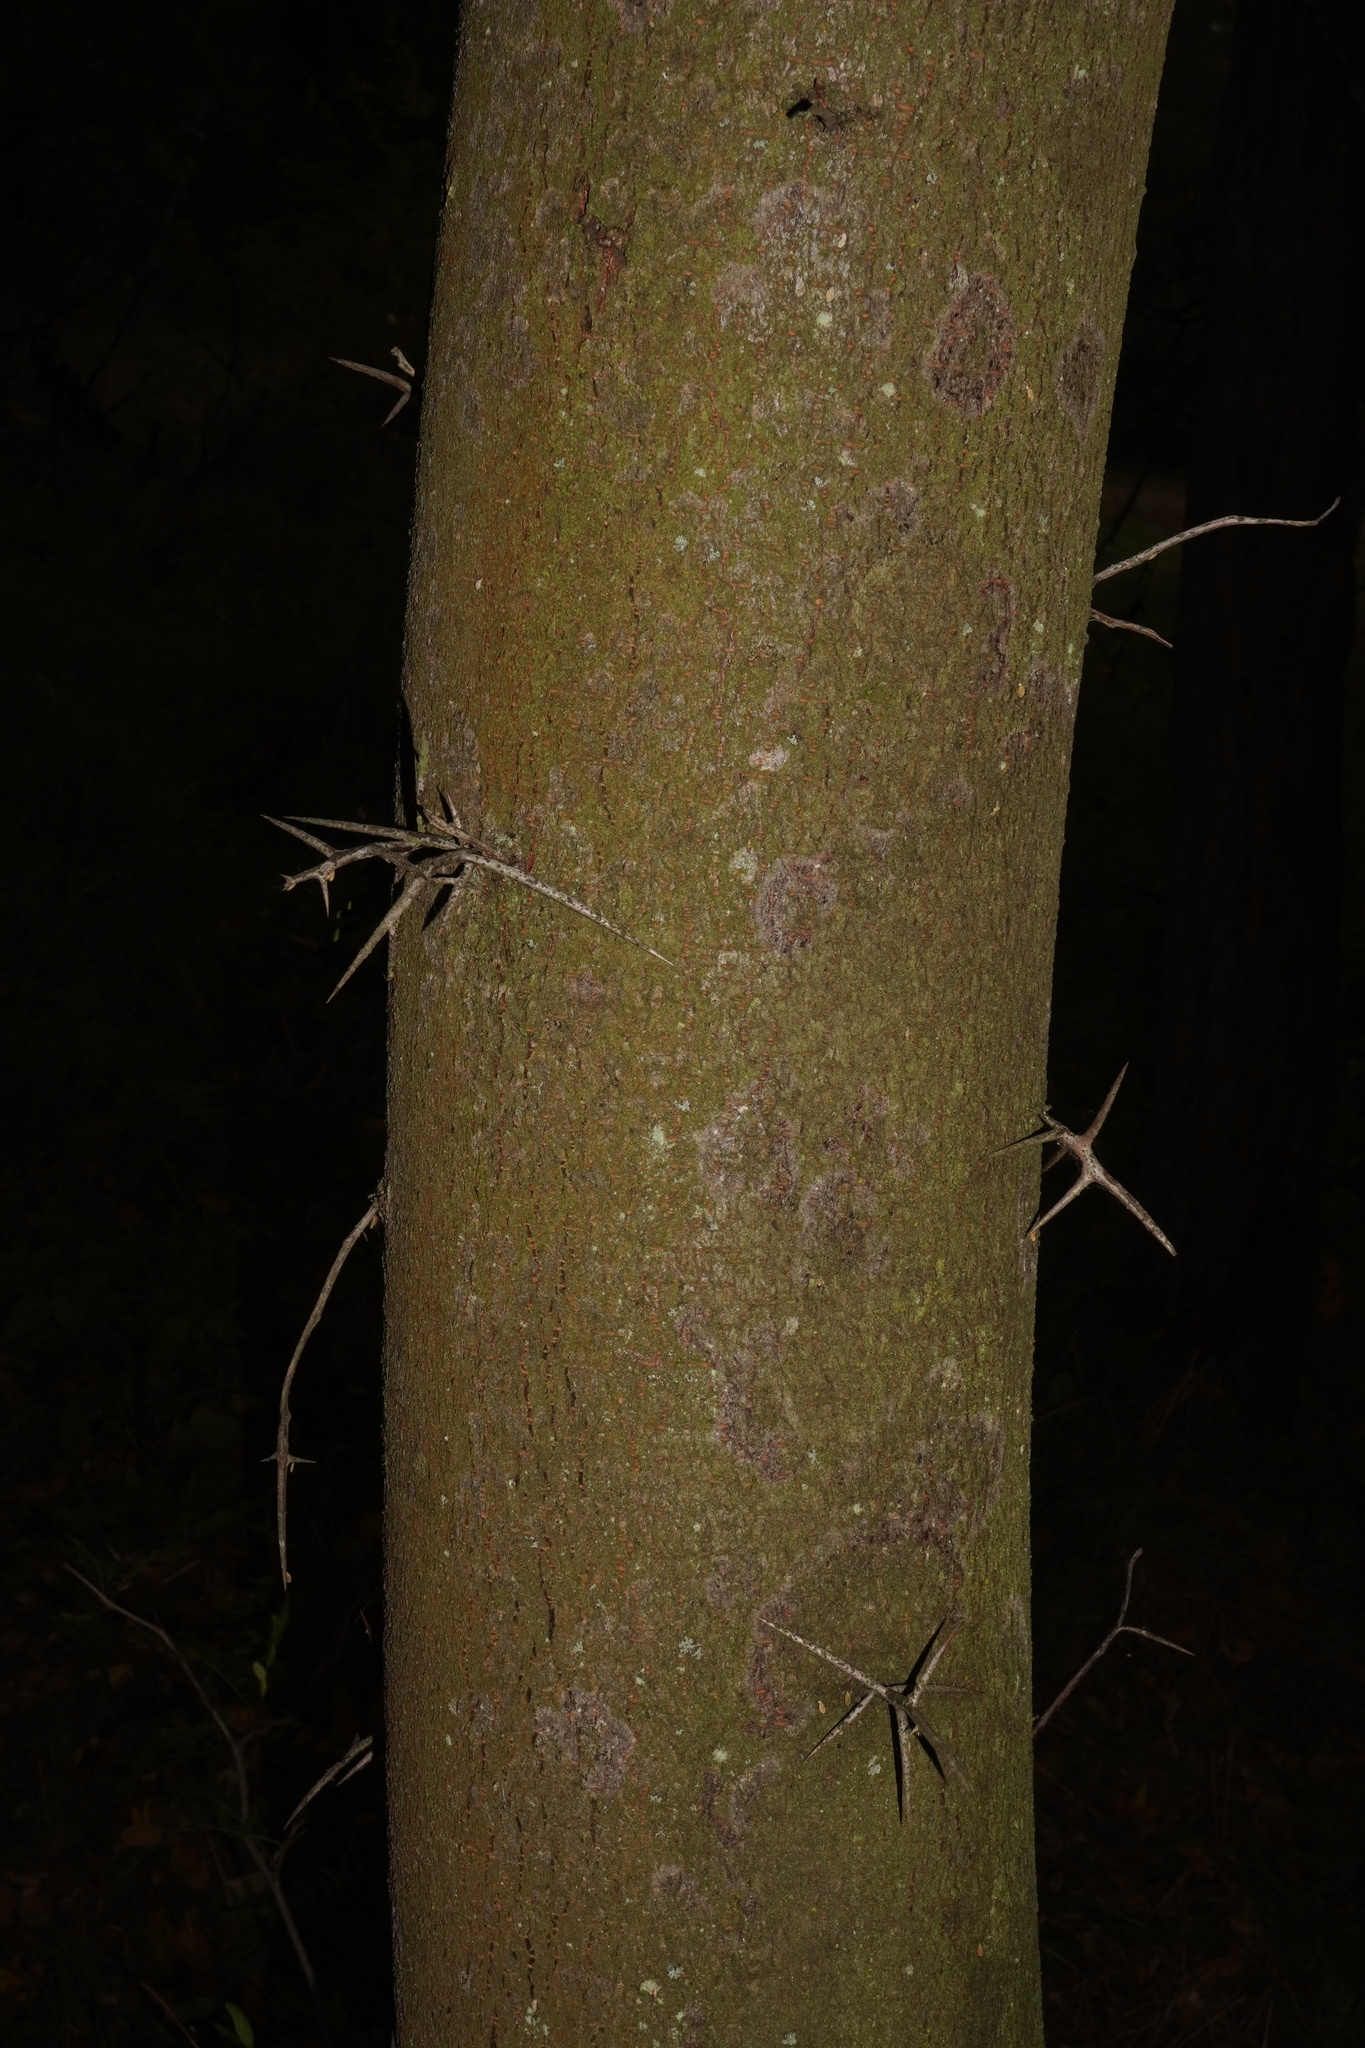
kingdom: Plantae
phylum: Tracheophyta
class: Magnoliopsida
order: Fabales
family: Fabaceae
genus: Gleditsia
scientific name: Gleditsia triacanthos
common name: Common honeylocust
